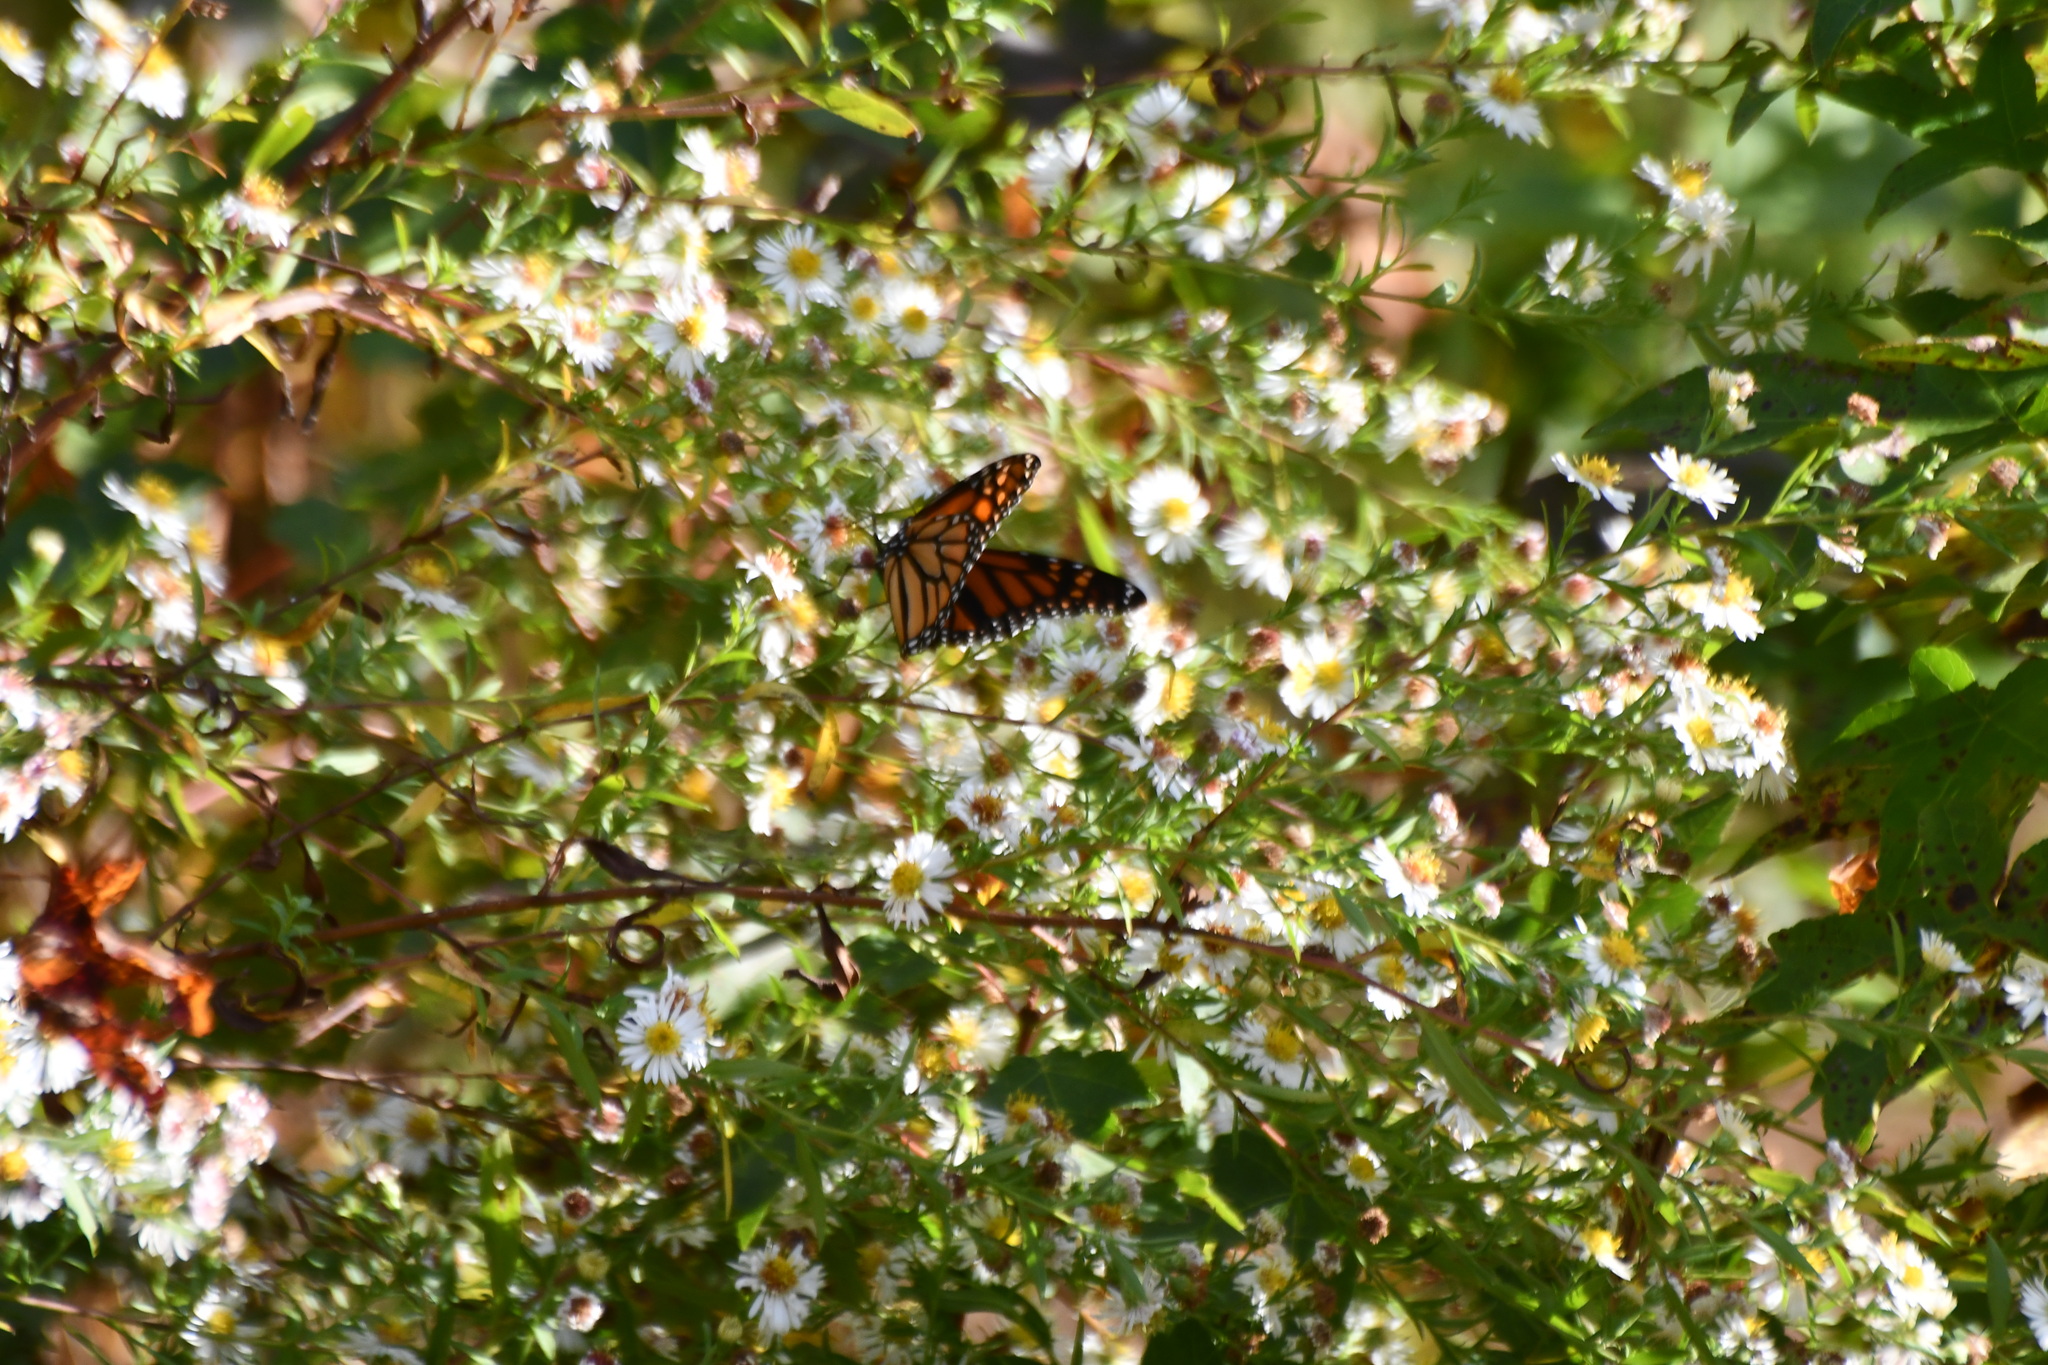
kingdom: Animalia
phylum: Arthropoda
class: Insecta
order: Lepidoptera
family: Nymphalidae
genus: Danaus
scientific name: Danaus plexippus
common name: Monarch
